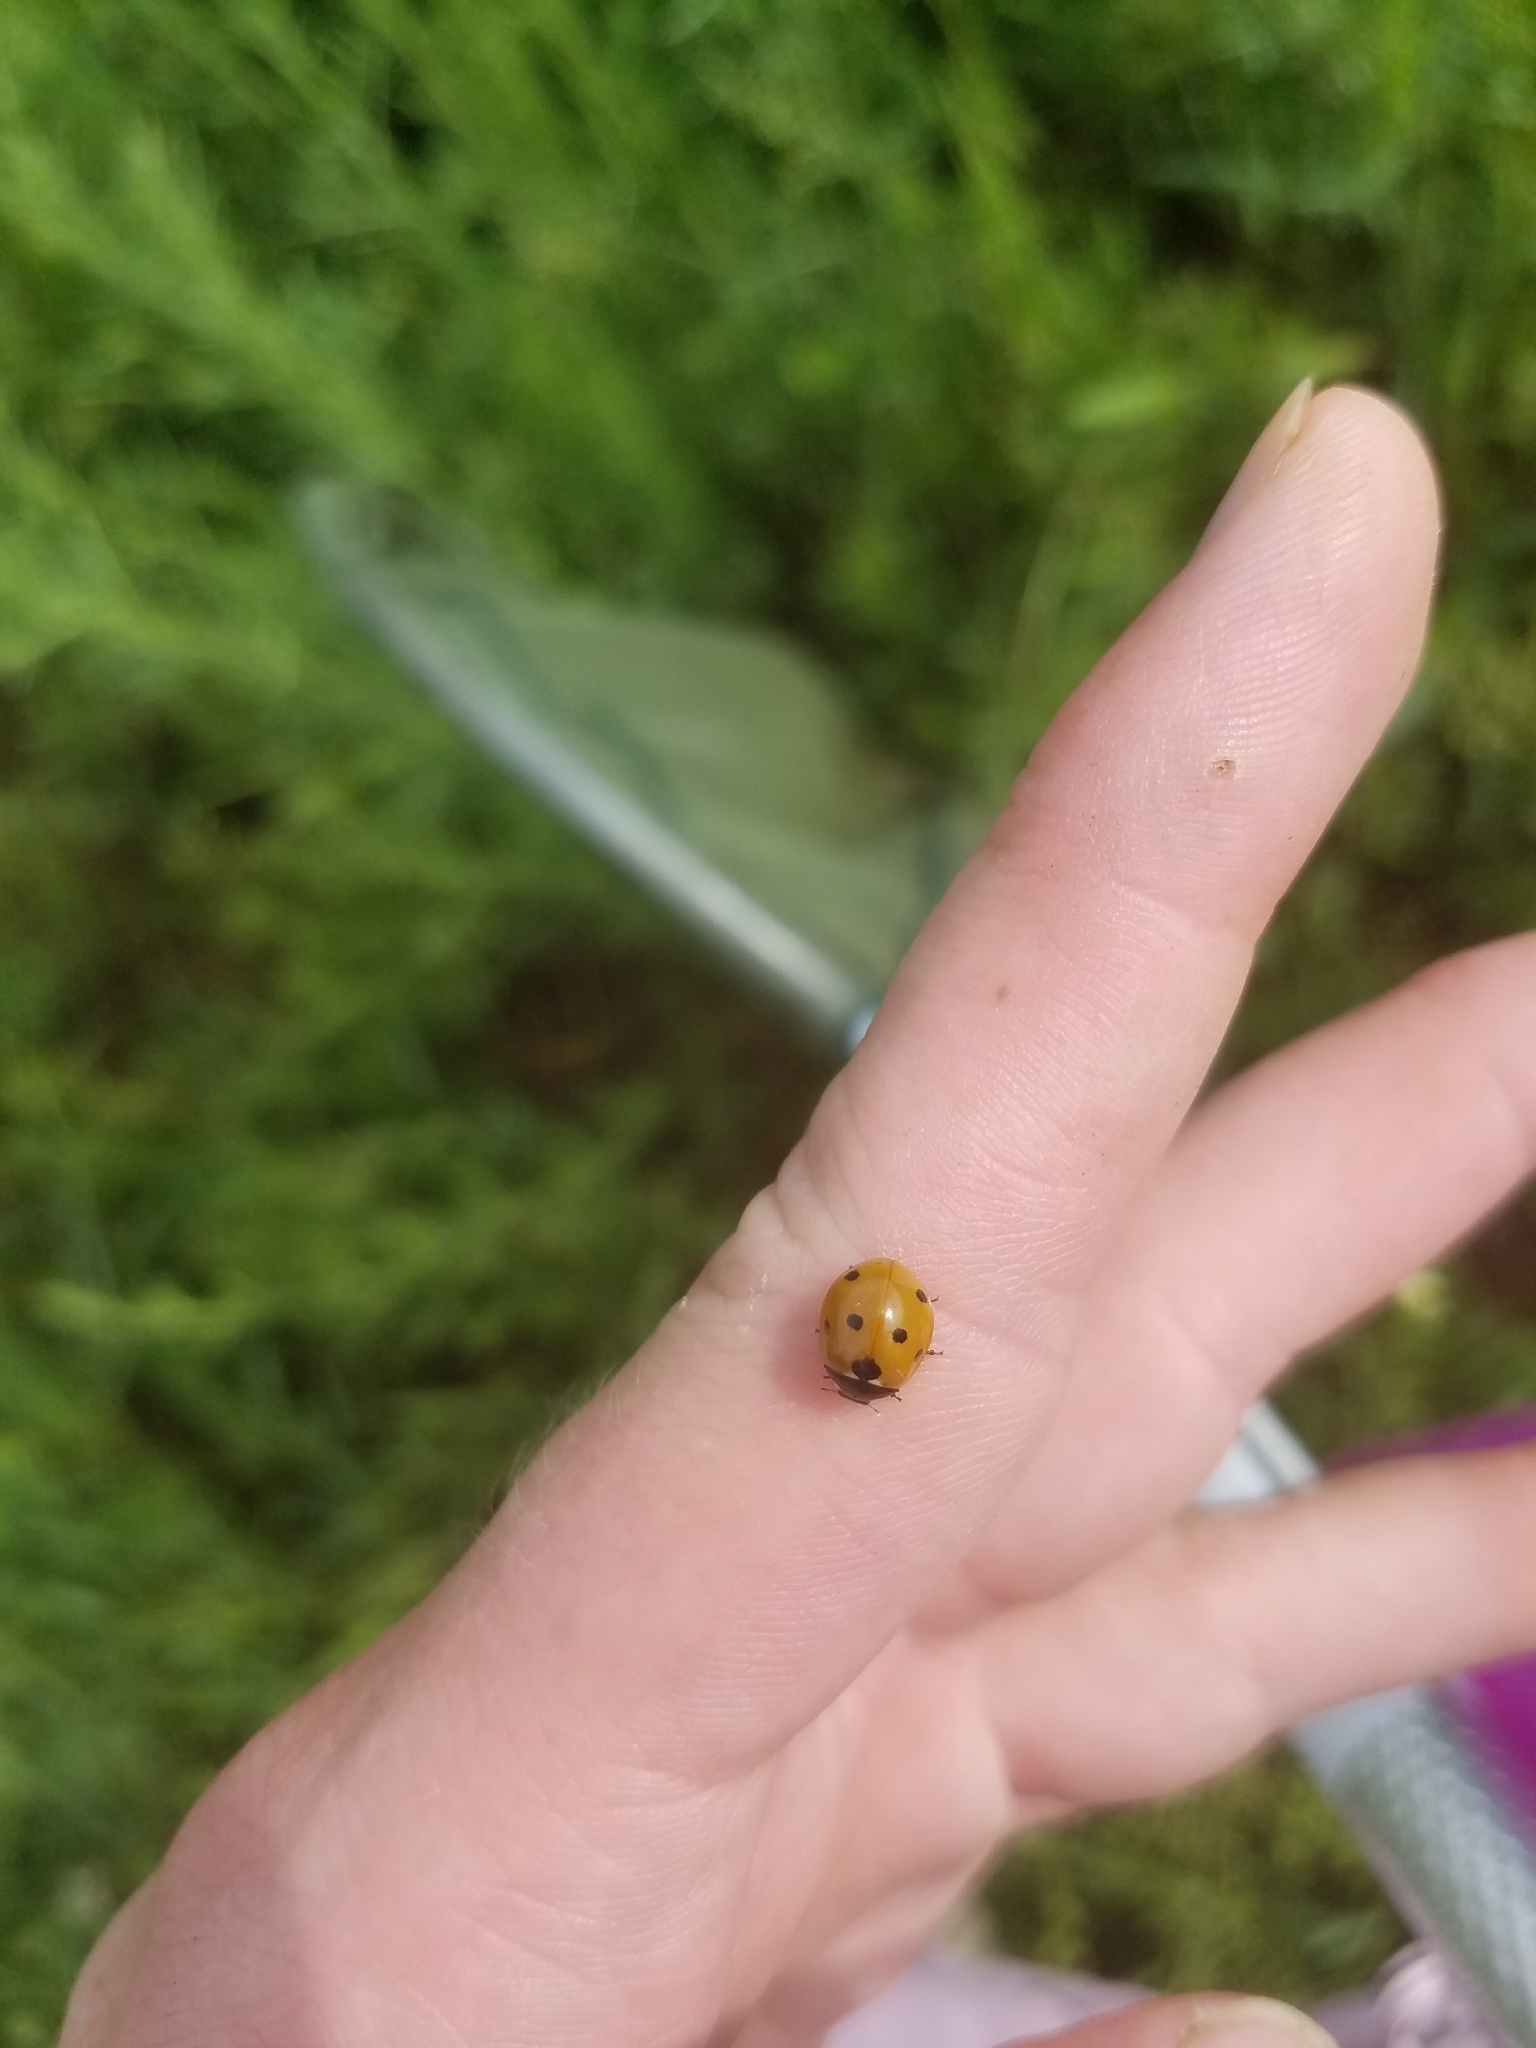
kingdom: Animalia
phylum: Arthropoda
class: Insecta
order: Coleoptera
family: Coccinellidae
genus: Coccinella
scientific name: Coccinella septempunctata
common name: Sevenspotted lady beetle
